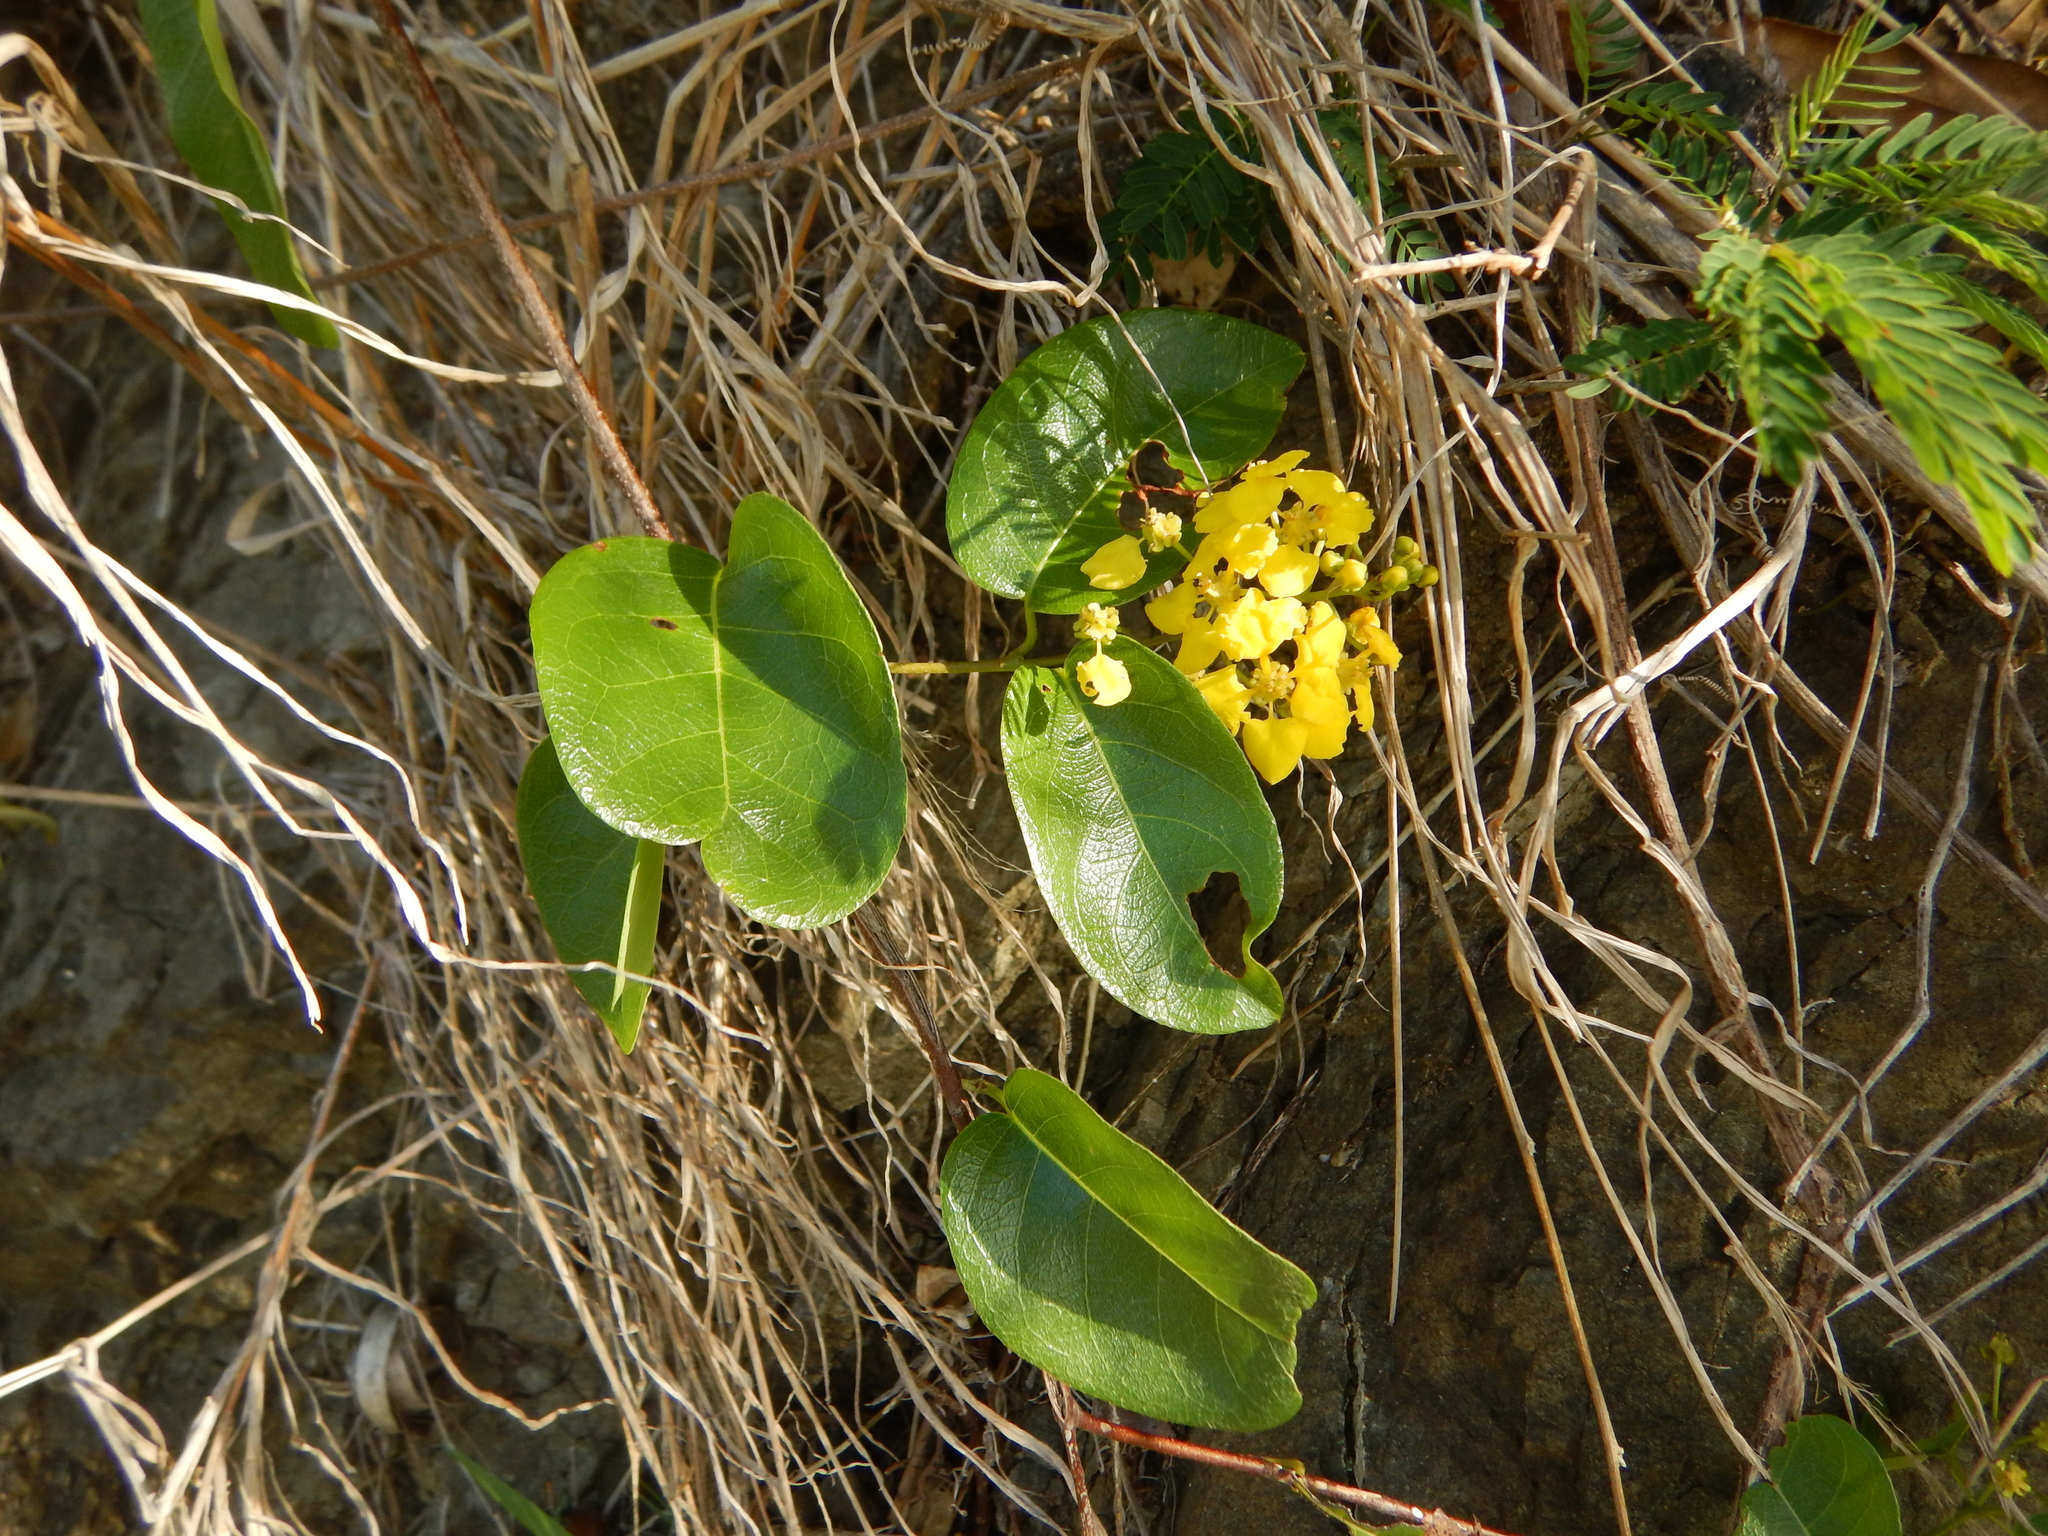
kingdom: Plantae
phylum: Tracheophyta
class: Magnoliopsida
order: Malpighiales
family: Malpighiaceae
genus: Stigmaphyllon
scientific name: Stigmaphyllon emarginatum
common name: Monarch amazonvine
